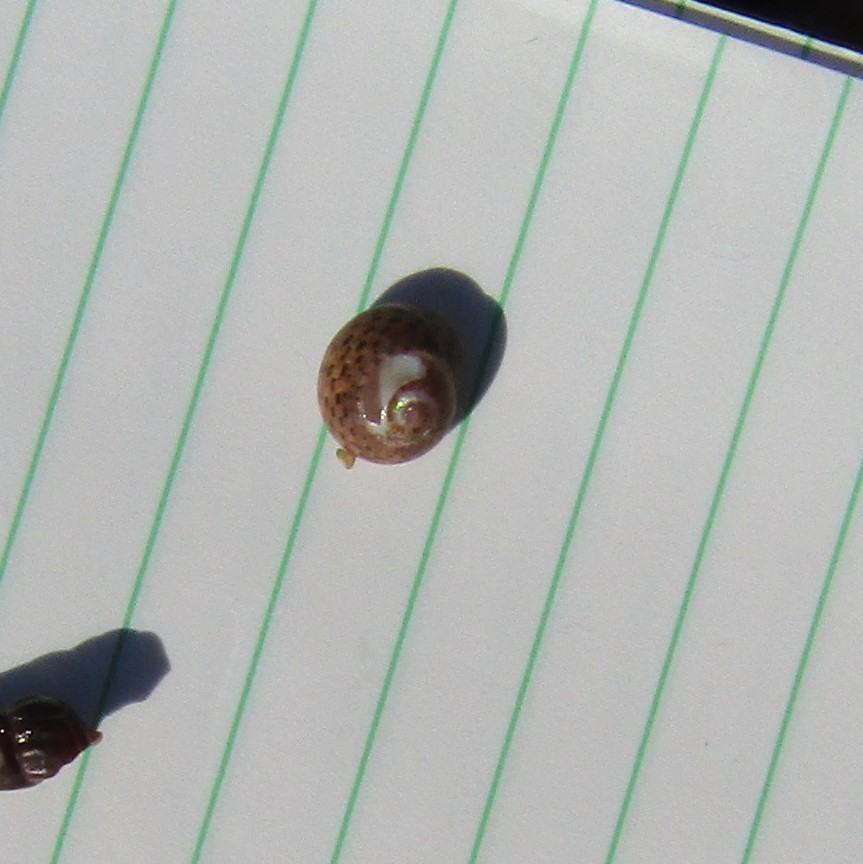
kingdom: Animalia
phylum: Mollusca
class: Gastropoda
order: Trochida
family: Trochidae
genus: Micrelenchus
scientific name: Micrelenchus tessellatus
